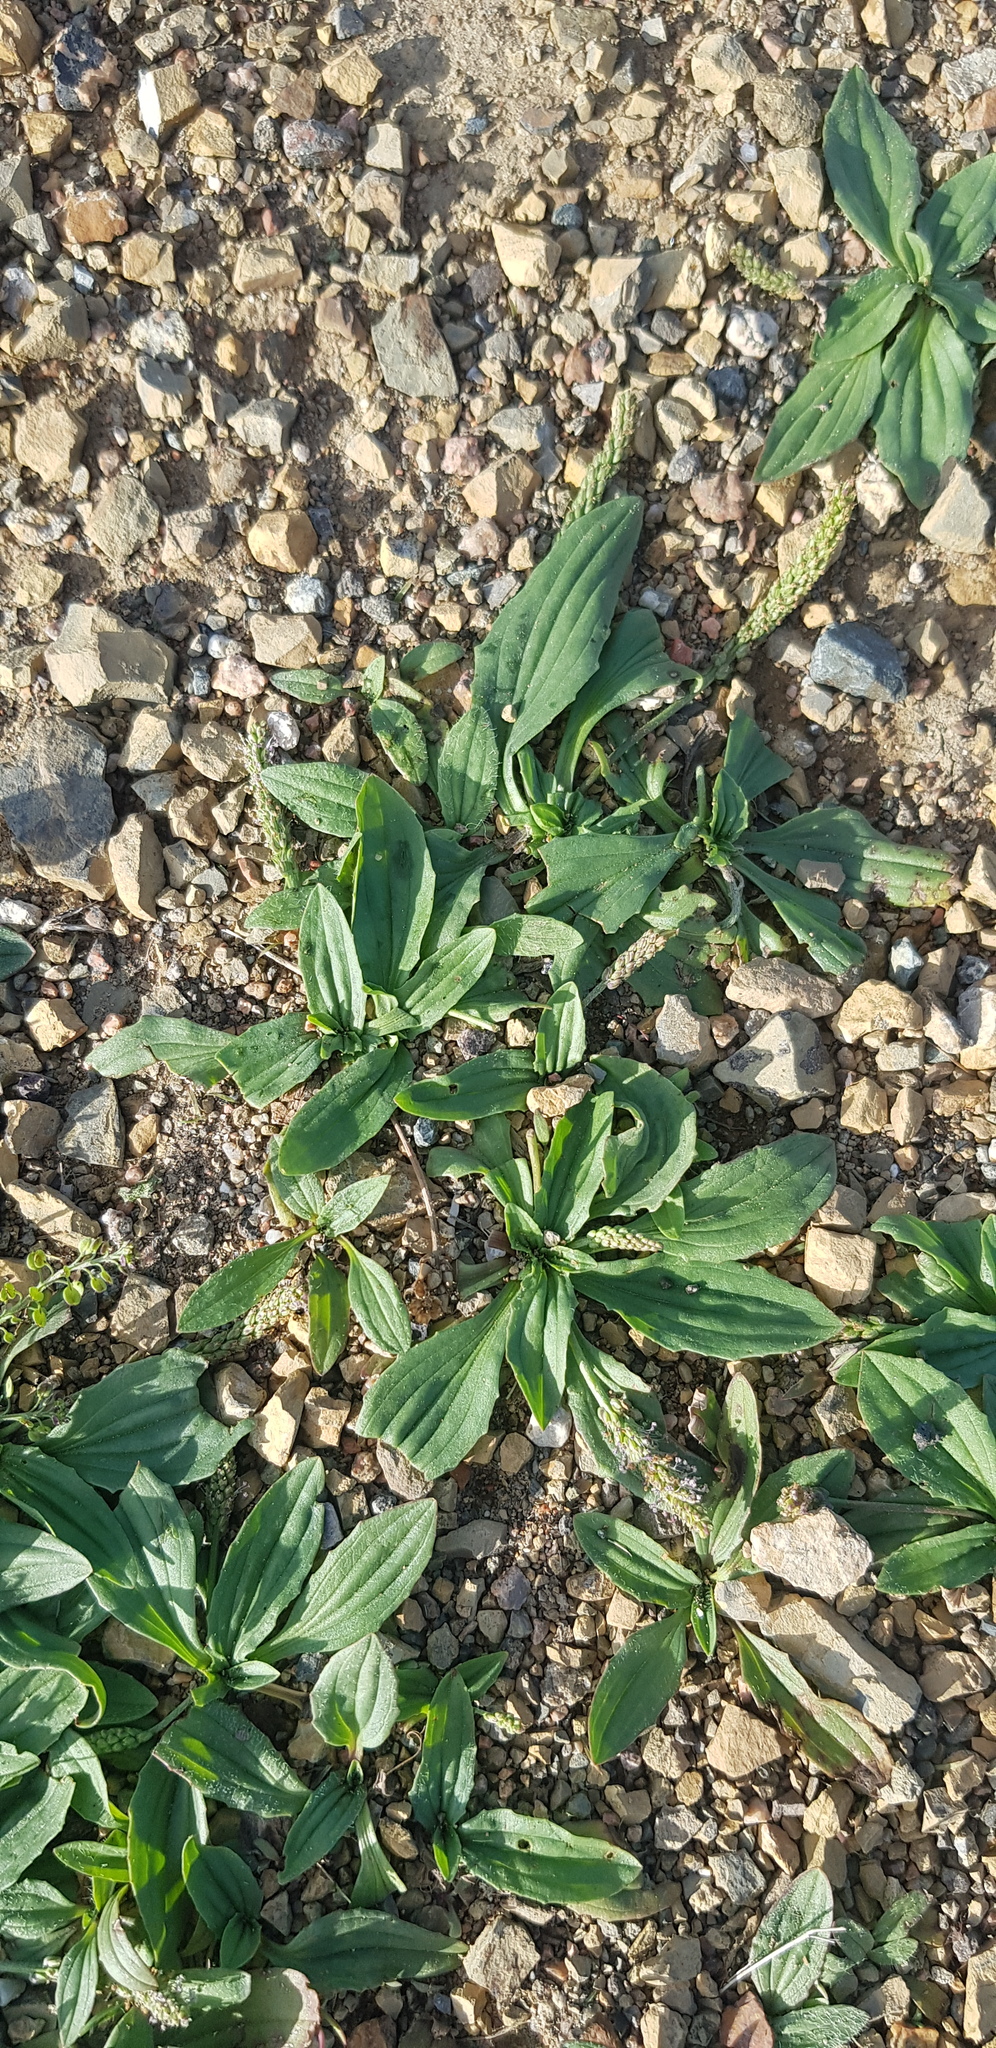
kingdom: Plantae
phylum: Tracheophyta
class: Magnoliopsida
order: Lamiales
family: Plantaginaceae
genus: Plantago
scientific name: Plantago depressa
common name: Depressed plantain
